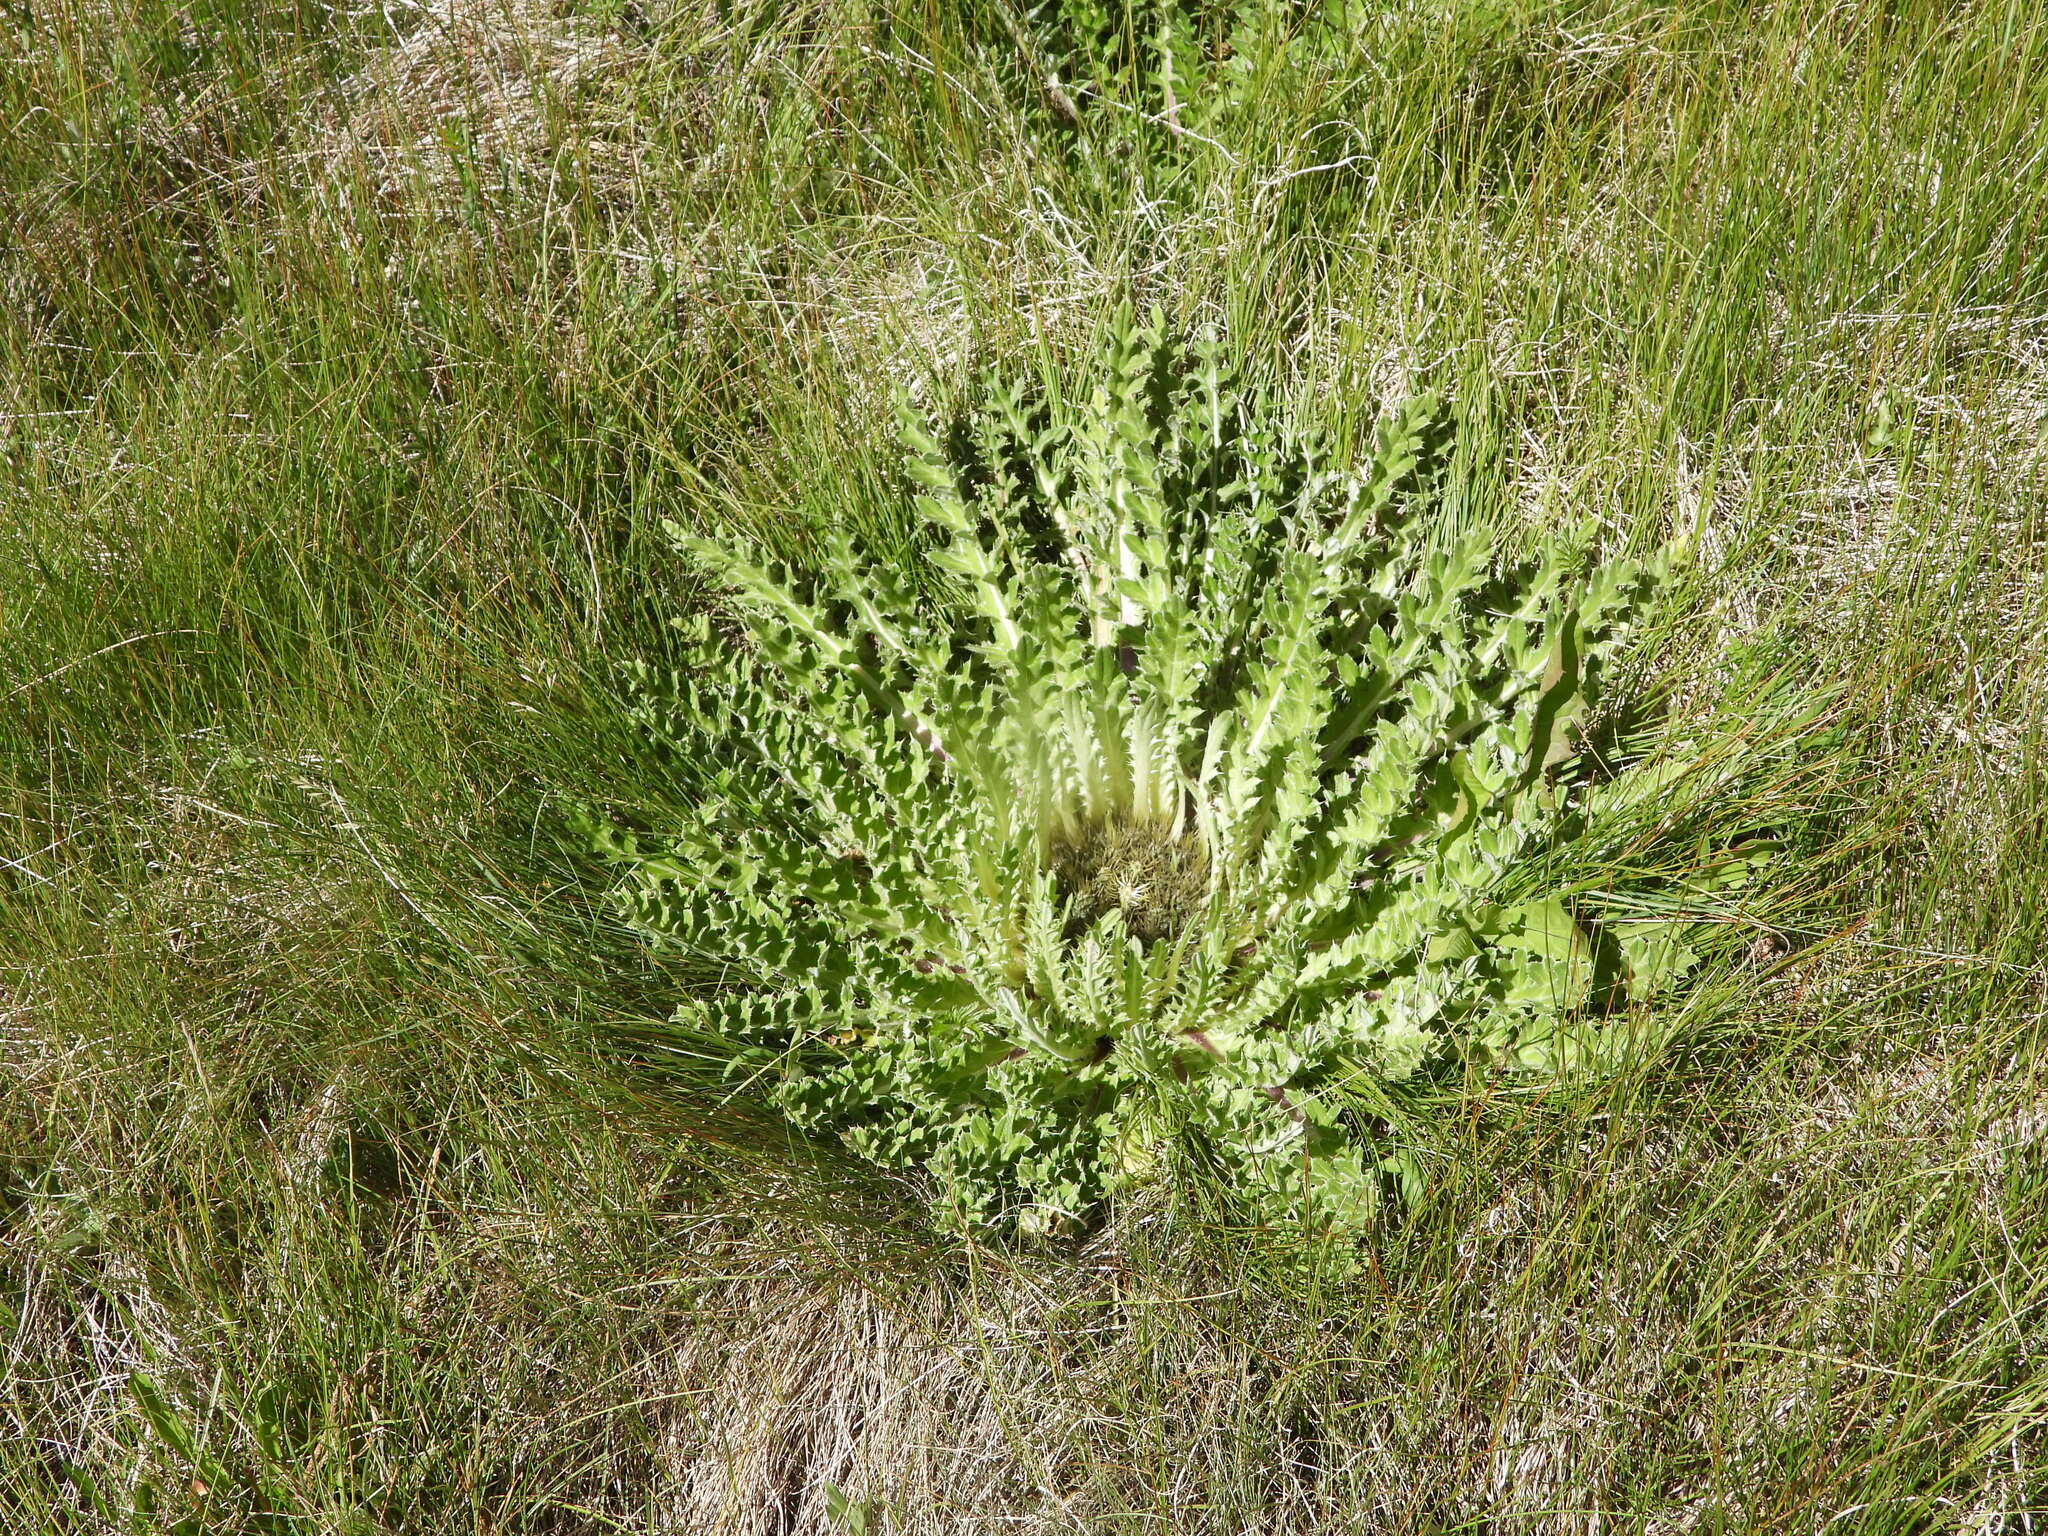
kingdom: Plantae
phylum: Tracheophyta
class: Magnoliopsida
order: Asterales
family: Asteraceae
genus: Cirsium
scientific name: Cirsium tioganum
